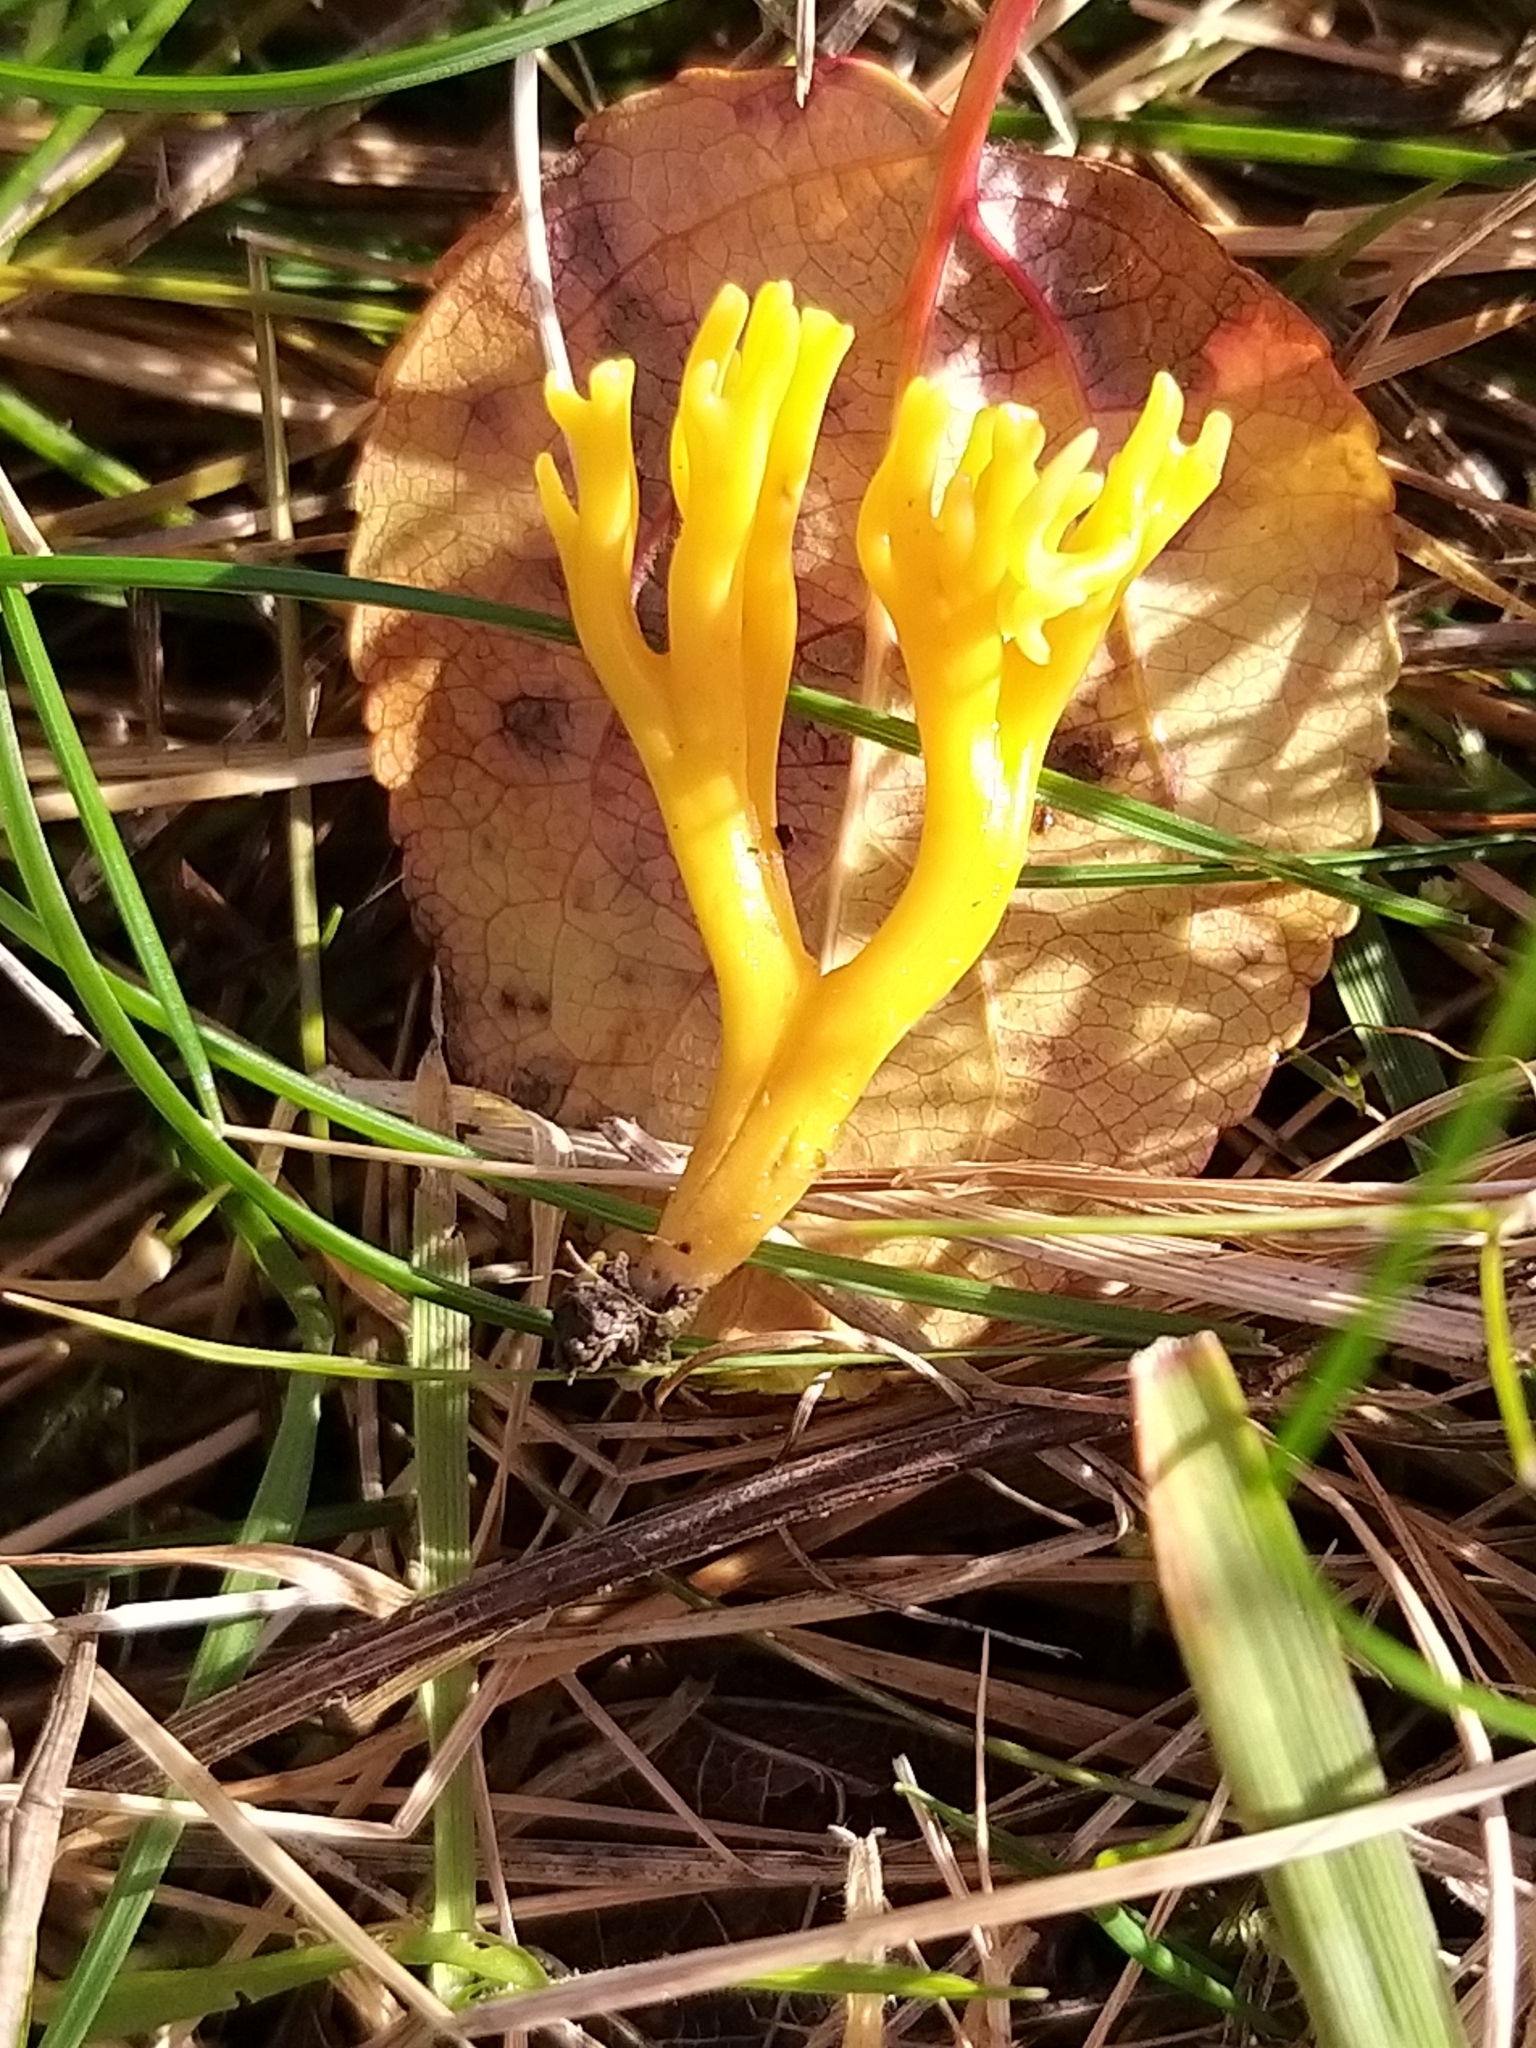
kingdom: Fungi
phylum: Basidiomycota
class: Agaricomycetes
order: Agaricales
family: Clavariaceae
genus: Clavulinopsis
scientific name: Clavulinopsis corniculata
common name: Meadow coral
